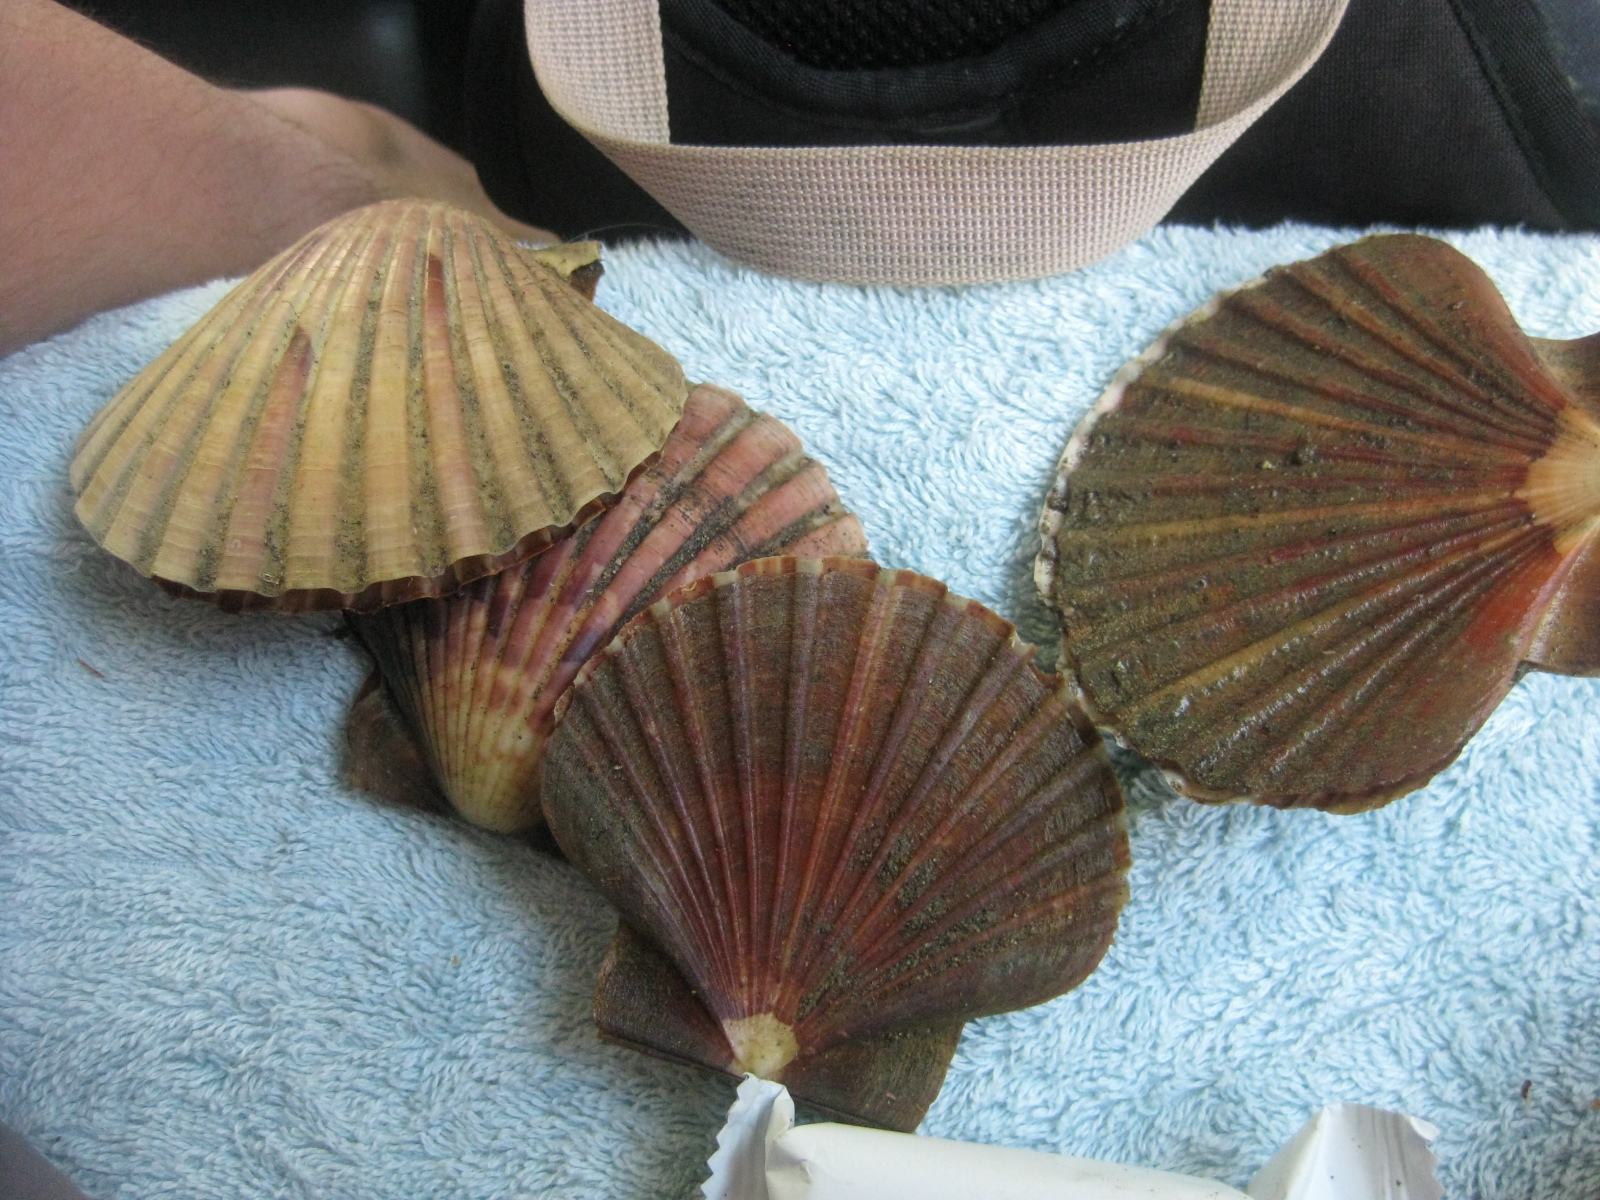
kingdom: Animalia
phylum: Mollusca
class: Bivalvia
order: Pectinida
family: Pectinidae
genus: Pecten
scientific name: Pecten novaezelandiae
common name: New zealand scallop
